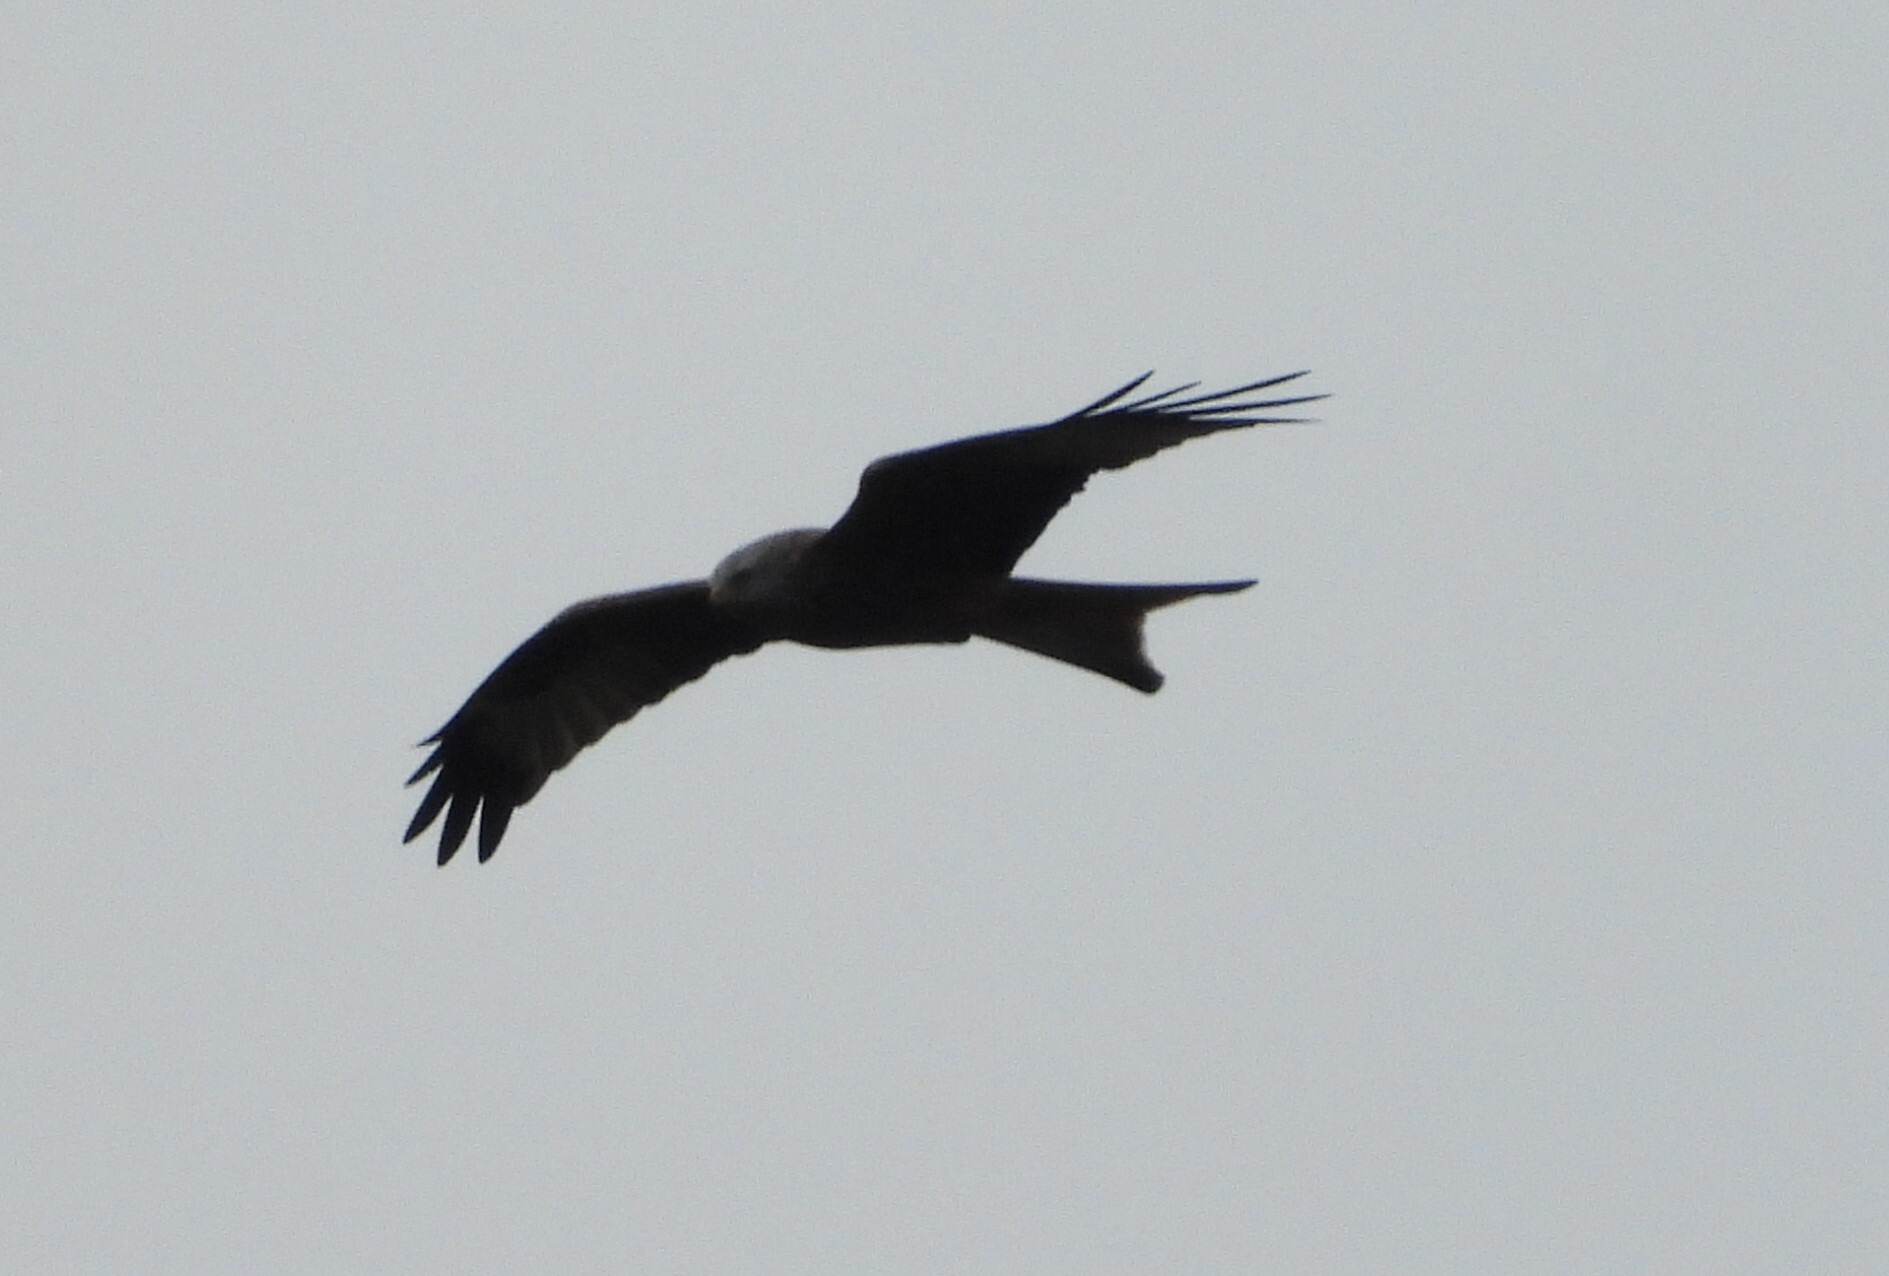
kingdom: Animalia
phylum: Chordata
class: Aves
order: Accipitriformes
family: Accipitridae
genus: Milvus
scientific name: Milvus milvus
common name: Red kite
